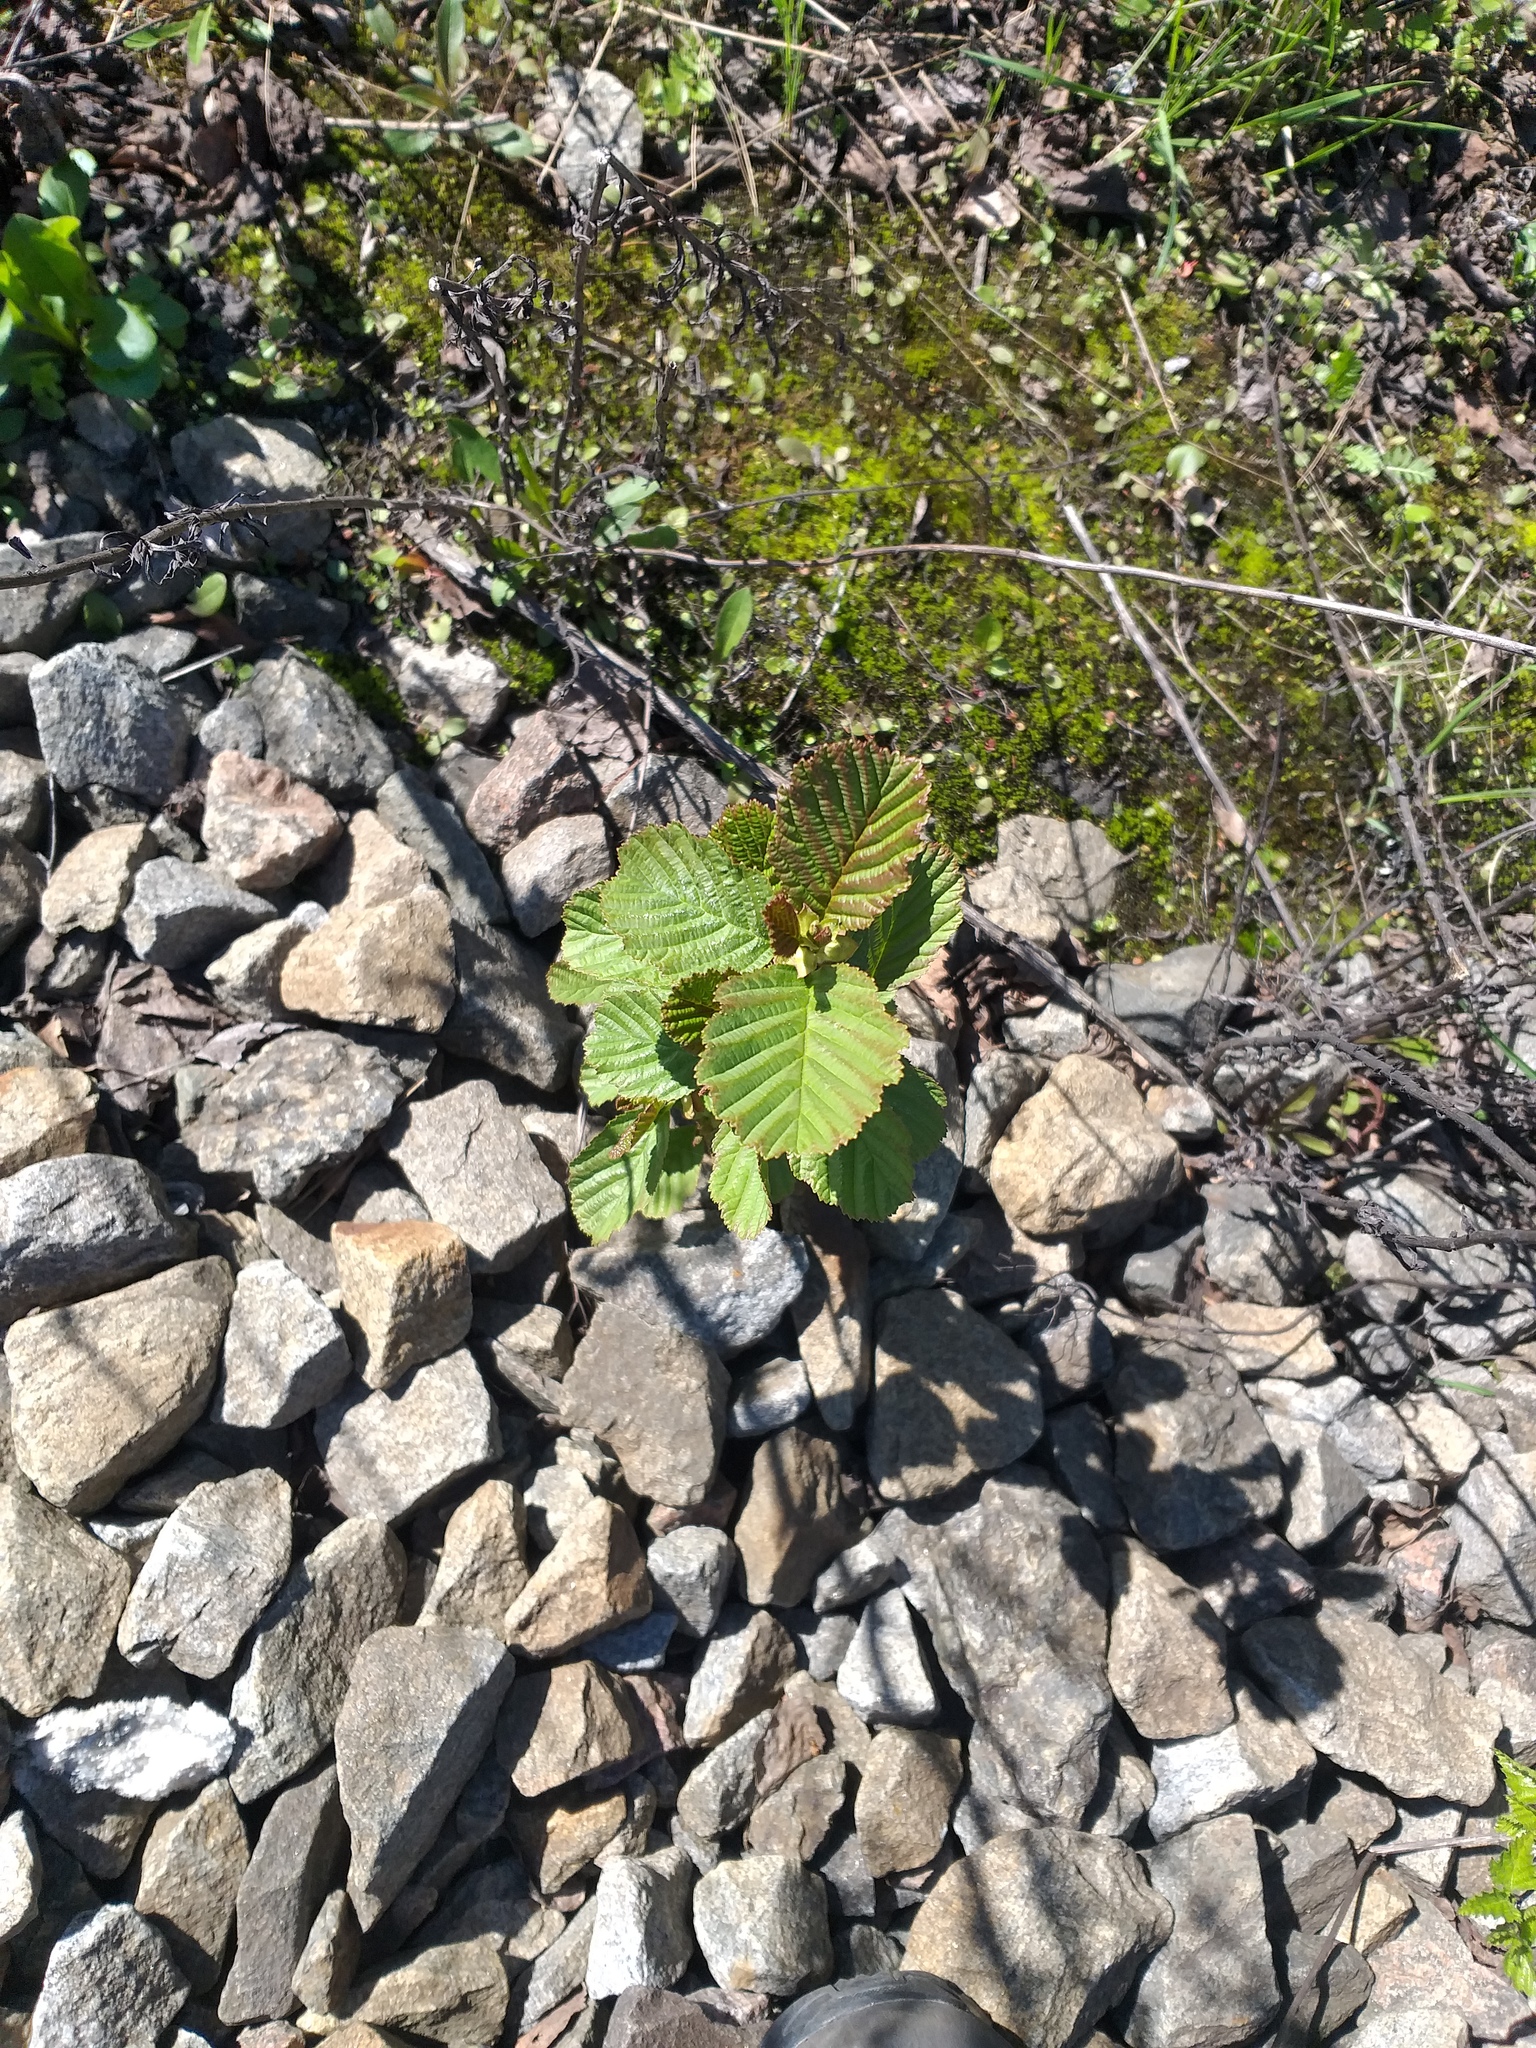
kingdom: Plantae
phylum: Tracheophyta
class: Magnoliopsida
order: Fagales
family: Betulaceae
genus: Alnus
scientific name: Alnus glutinosa
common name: Black alder
